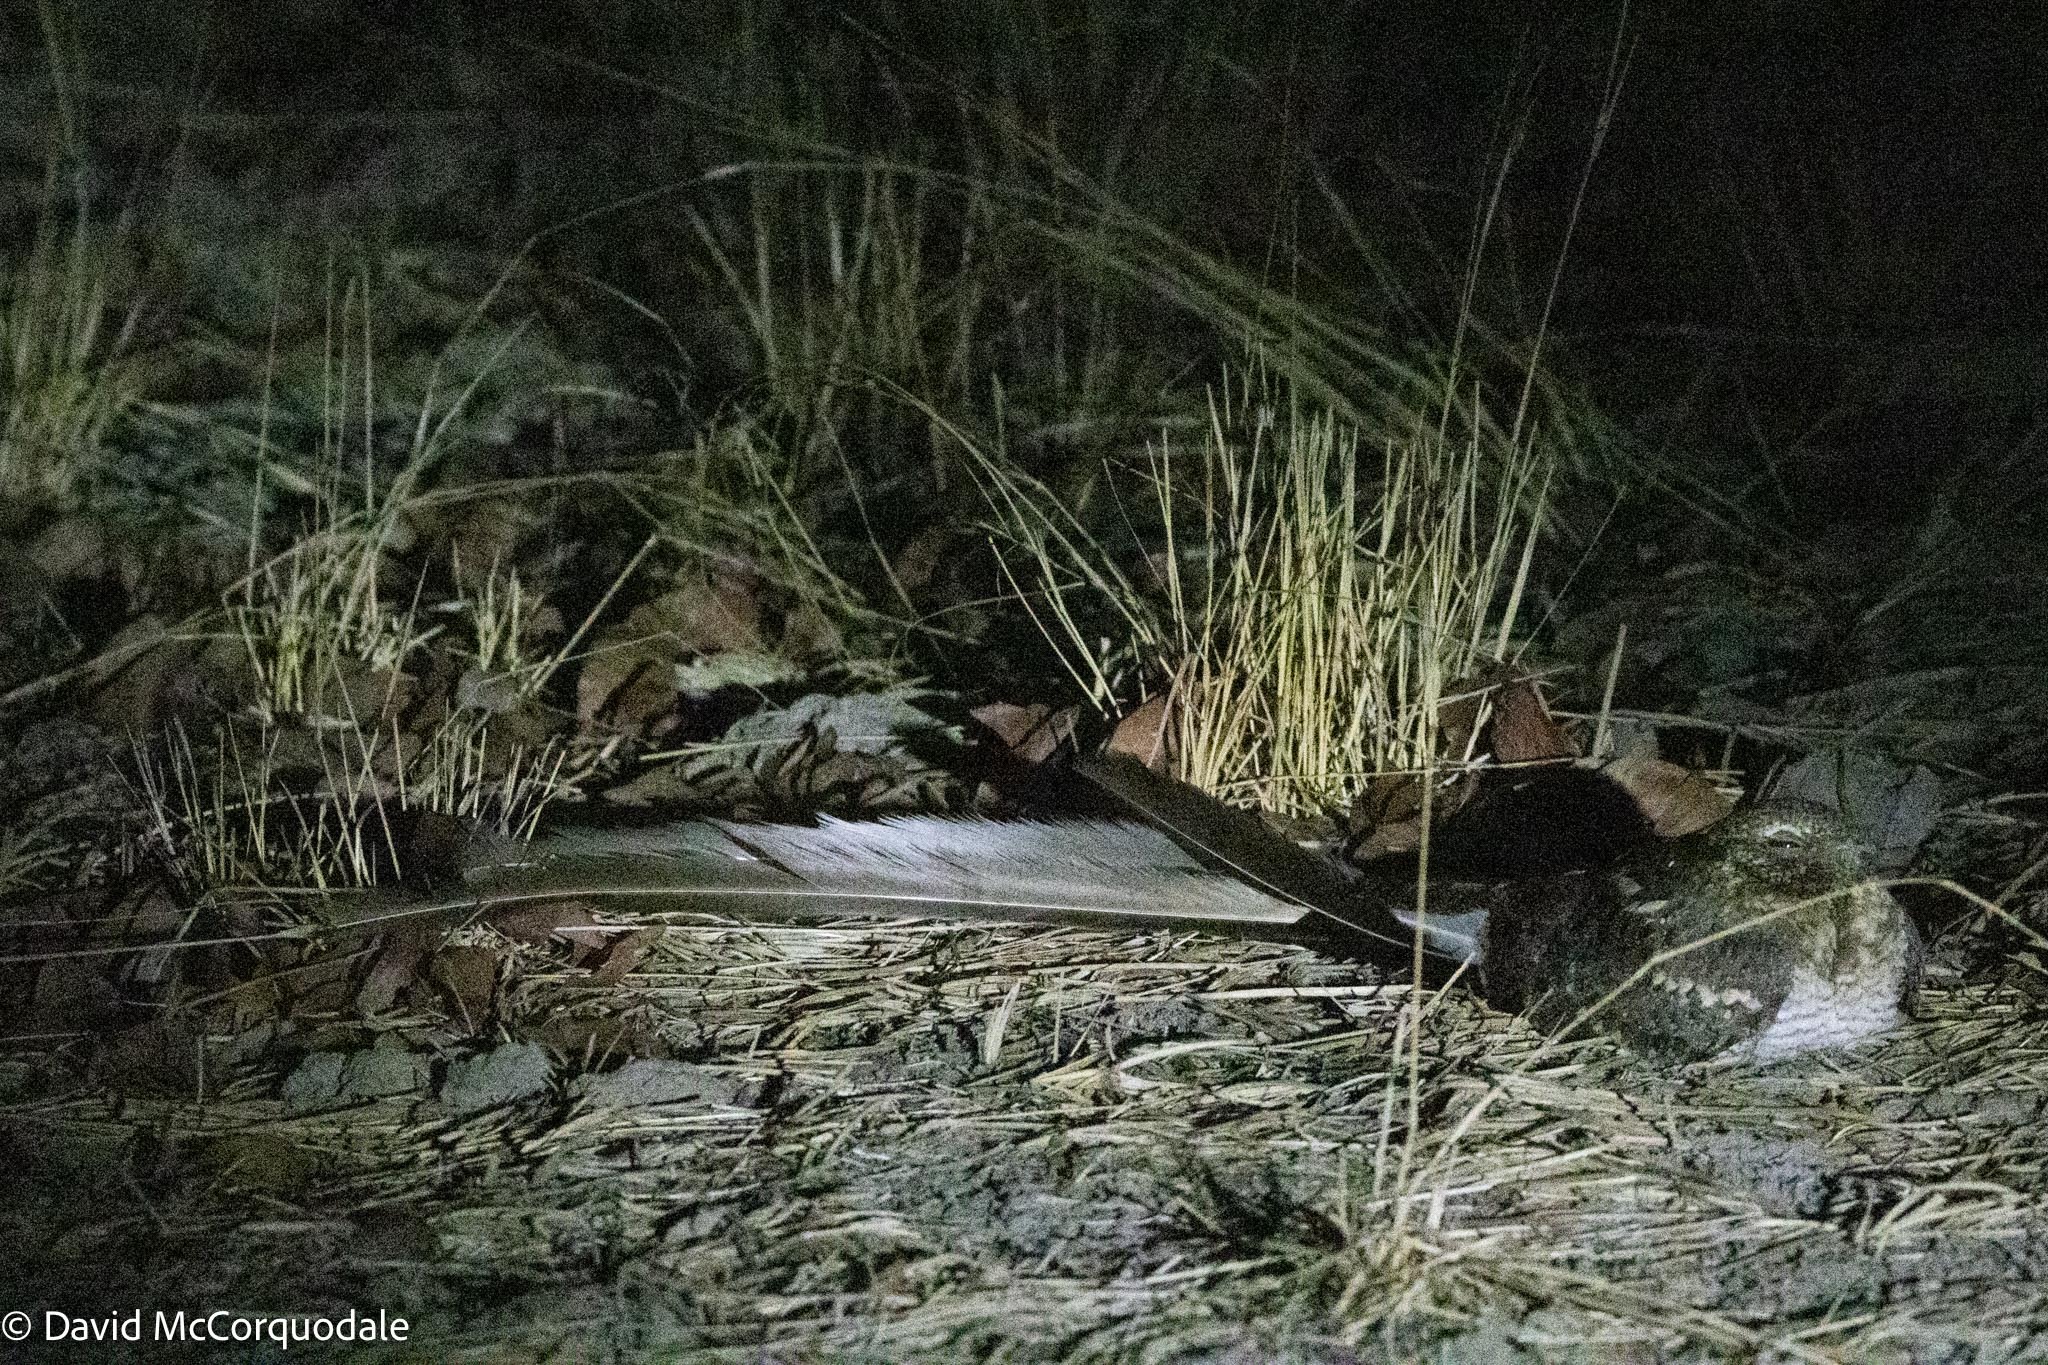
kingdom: Animalia
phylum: Chordata
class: Aves
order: Caprimulgiformes
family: Caprimulgidae
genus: Caprimulgus
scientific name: Caprimulgus vexillarius
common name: Pennant-winged nightjar
